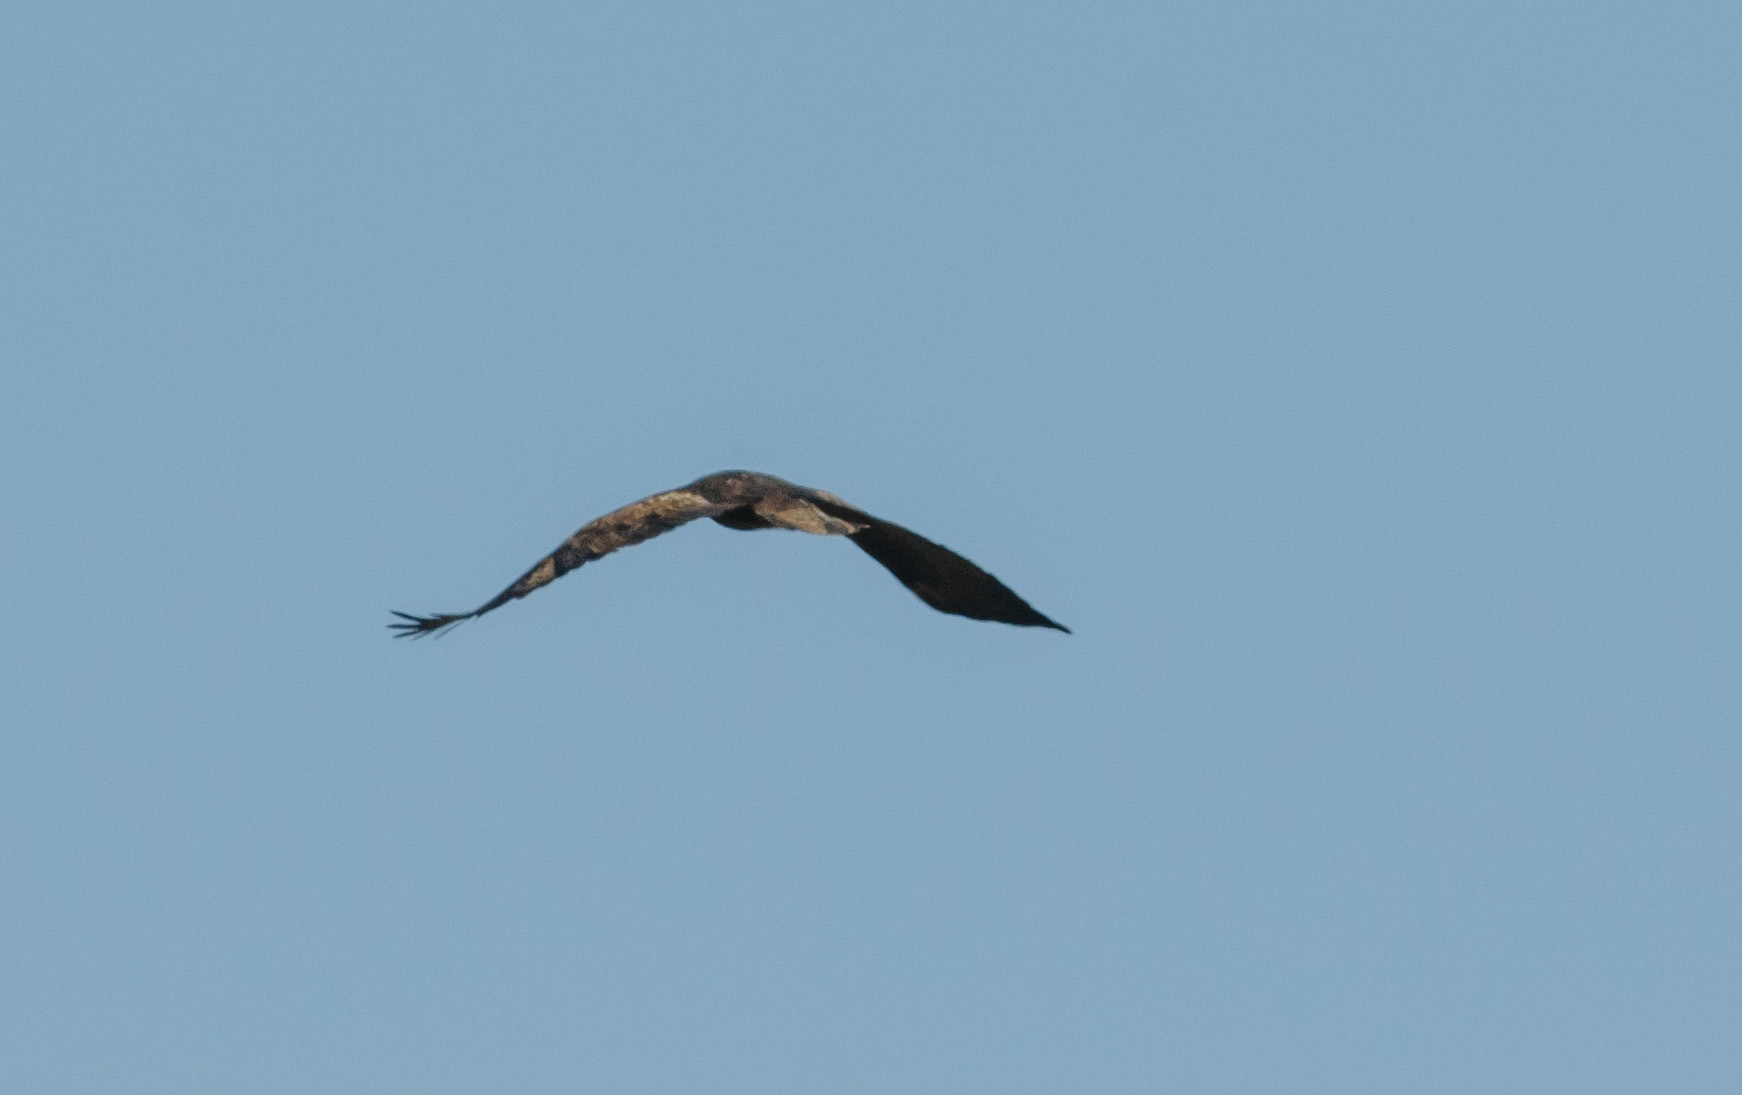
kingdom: Animalia
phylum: Chordata
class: Aves
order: Accipitriformes
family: Accipitridae
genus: Aquila
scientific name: Aquila chrysaetos
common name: Golden eagle
